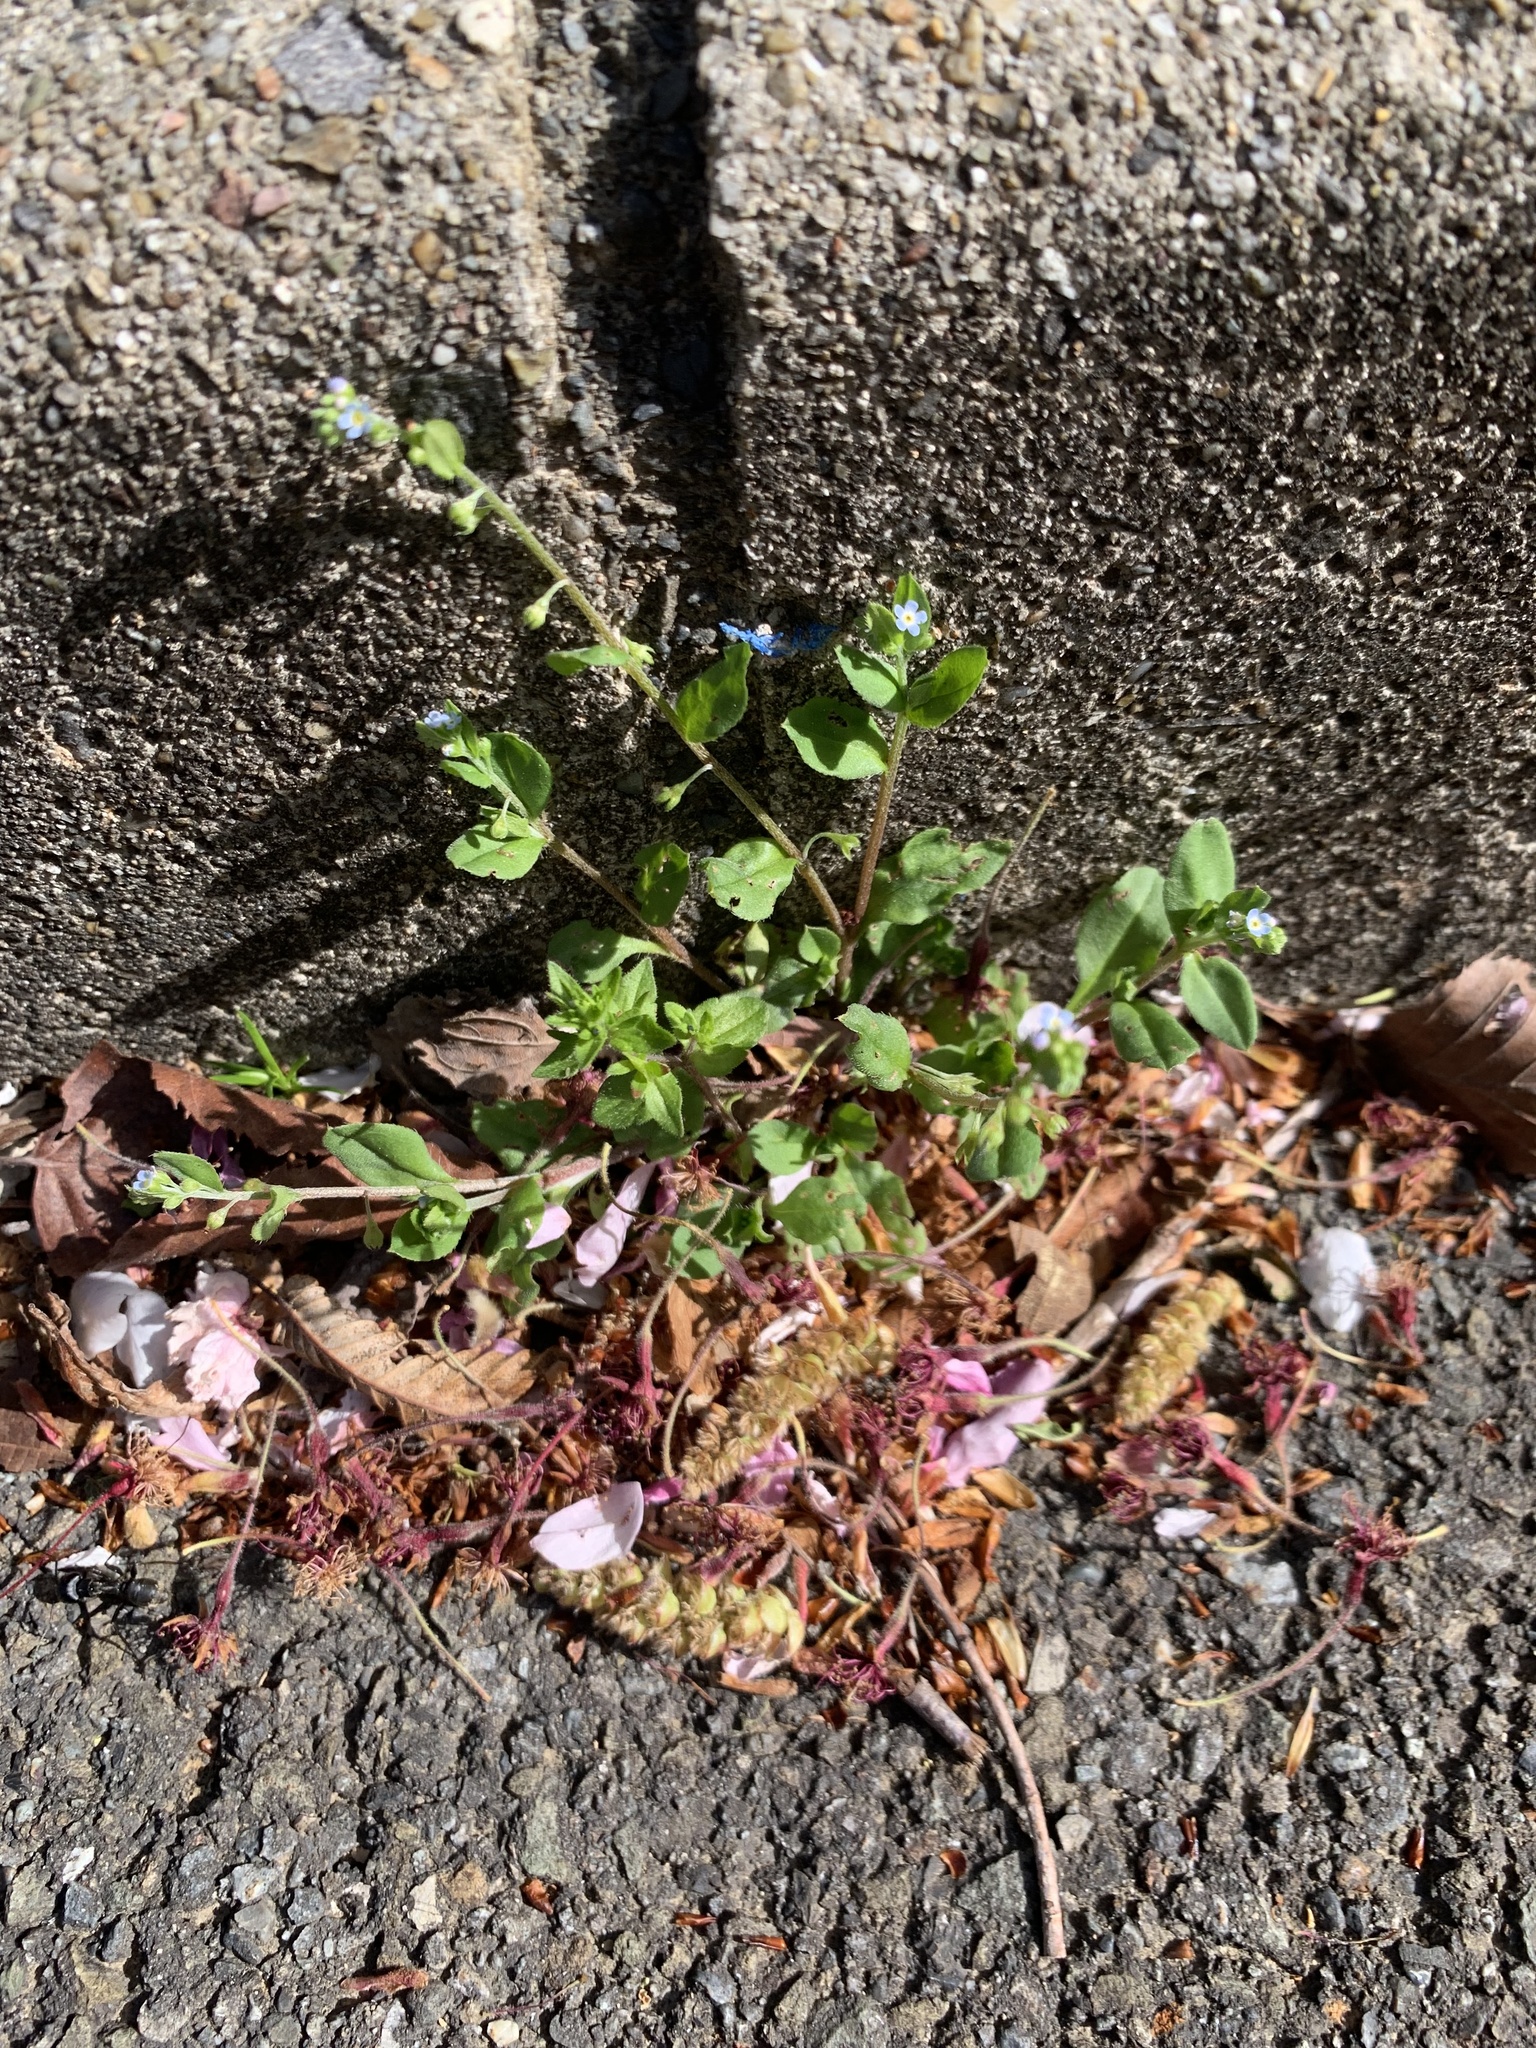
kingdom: Plantae
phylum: Tracheophyta
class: Magnoliopsida
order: Boraginales
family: Boraginaceae
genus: Trigonotis
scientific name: Trigonotis peduncularis
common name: Cucumber herb
